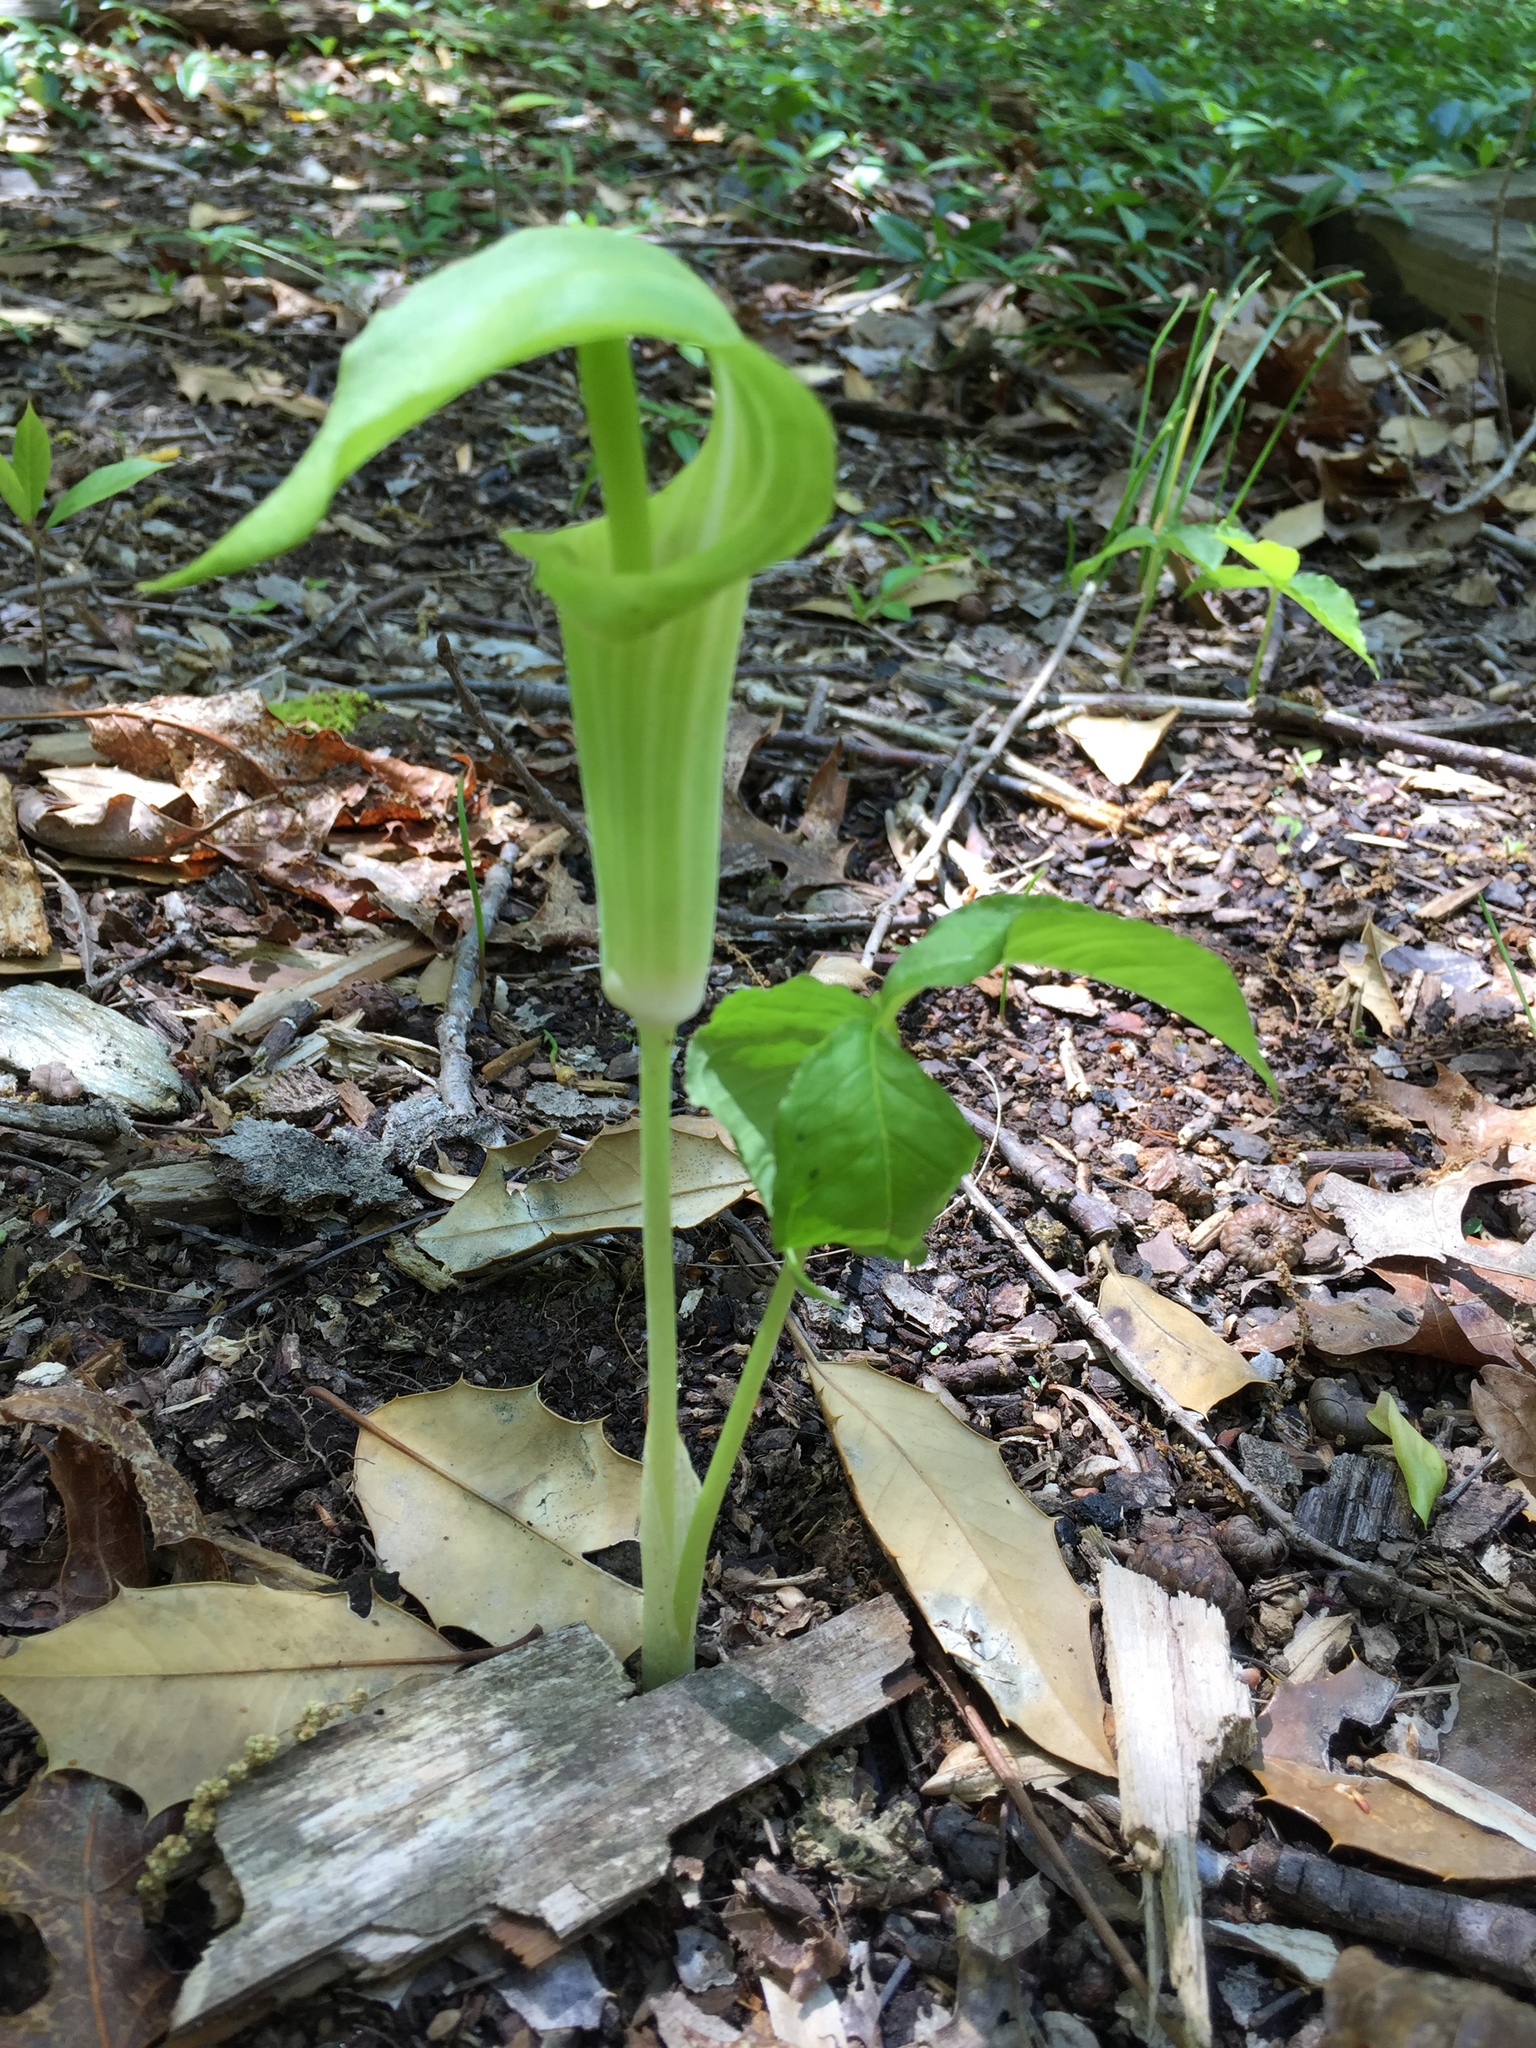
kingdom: Plantae
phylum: Tracheophyta
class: Liliopsida
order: Alismatales
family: Araceae
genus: Arisaema
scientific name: Arisaema triphyllum
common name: Jack-in-the-pulpit
